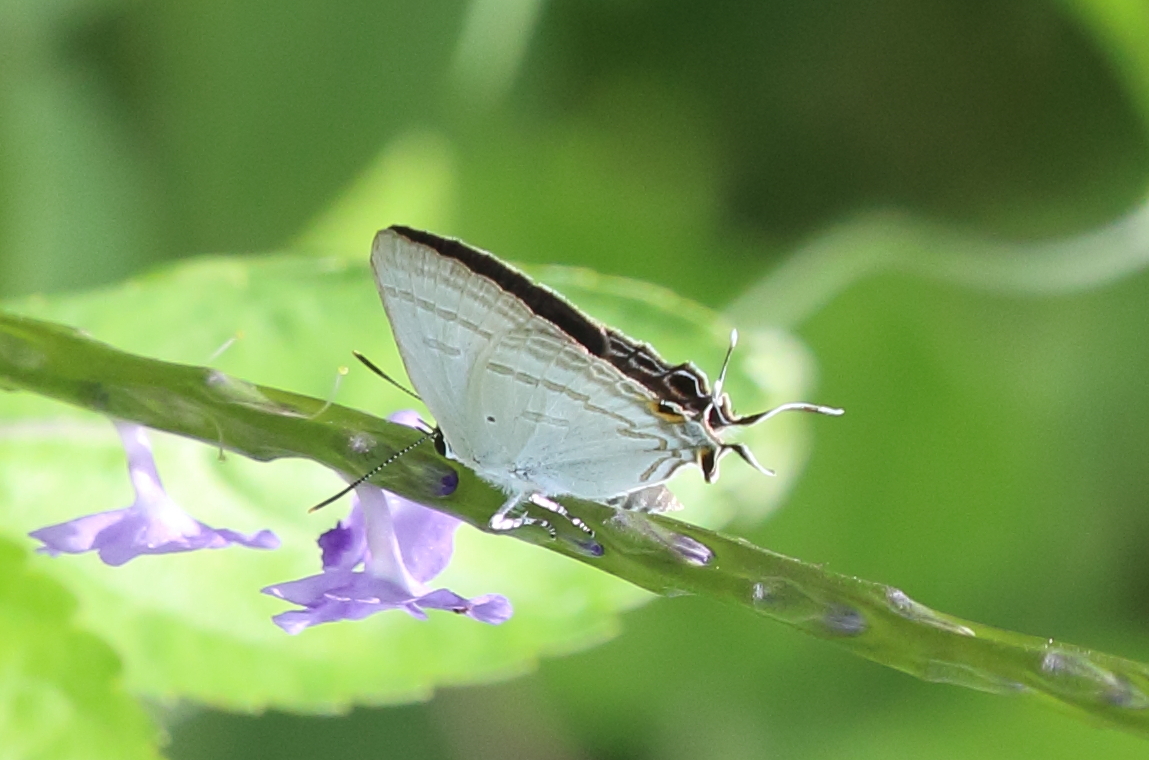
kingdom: Animalia
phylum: Arthropoda
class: Insecta
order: Lepidoptera
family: Lycaenidae
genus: Hypolycaena
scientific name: Hypolycaena phorbas
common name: Black-spotted flash
